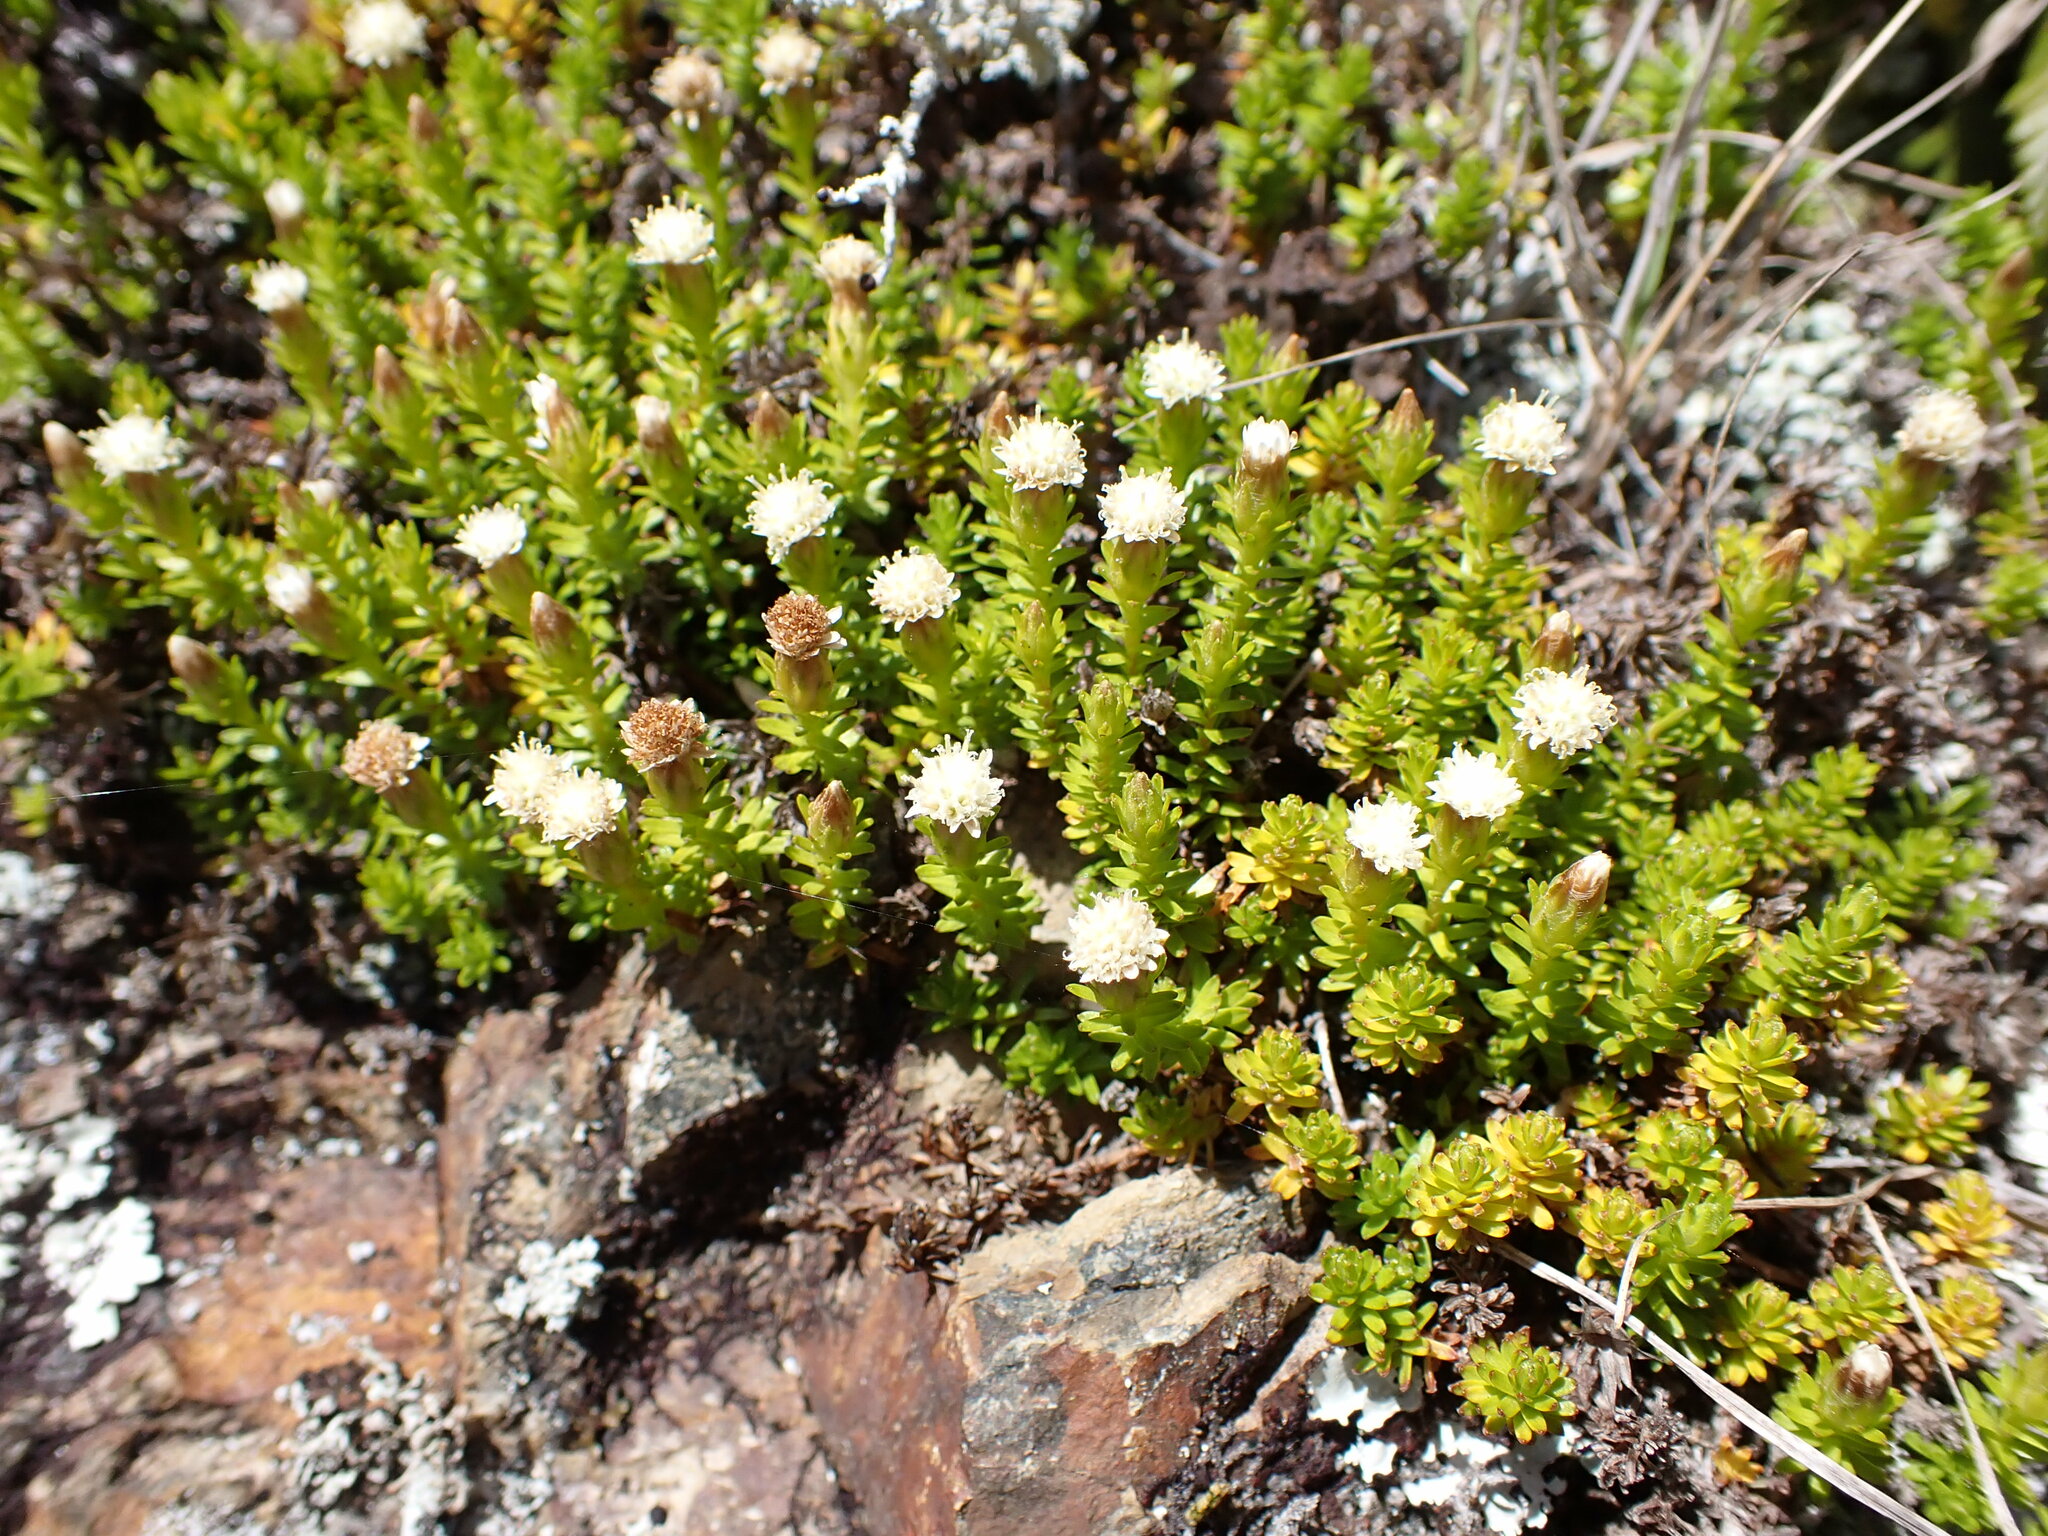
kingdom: Plantae
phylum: Tracheophyta
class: Magnoliopsida
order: Asterales
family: Asteraceae
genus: Raoulia
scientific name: Raoulia glabra
